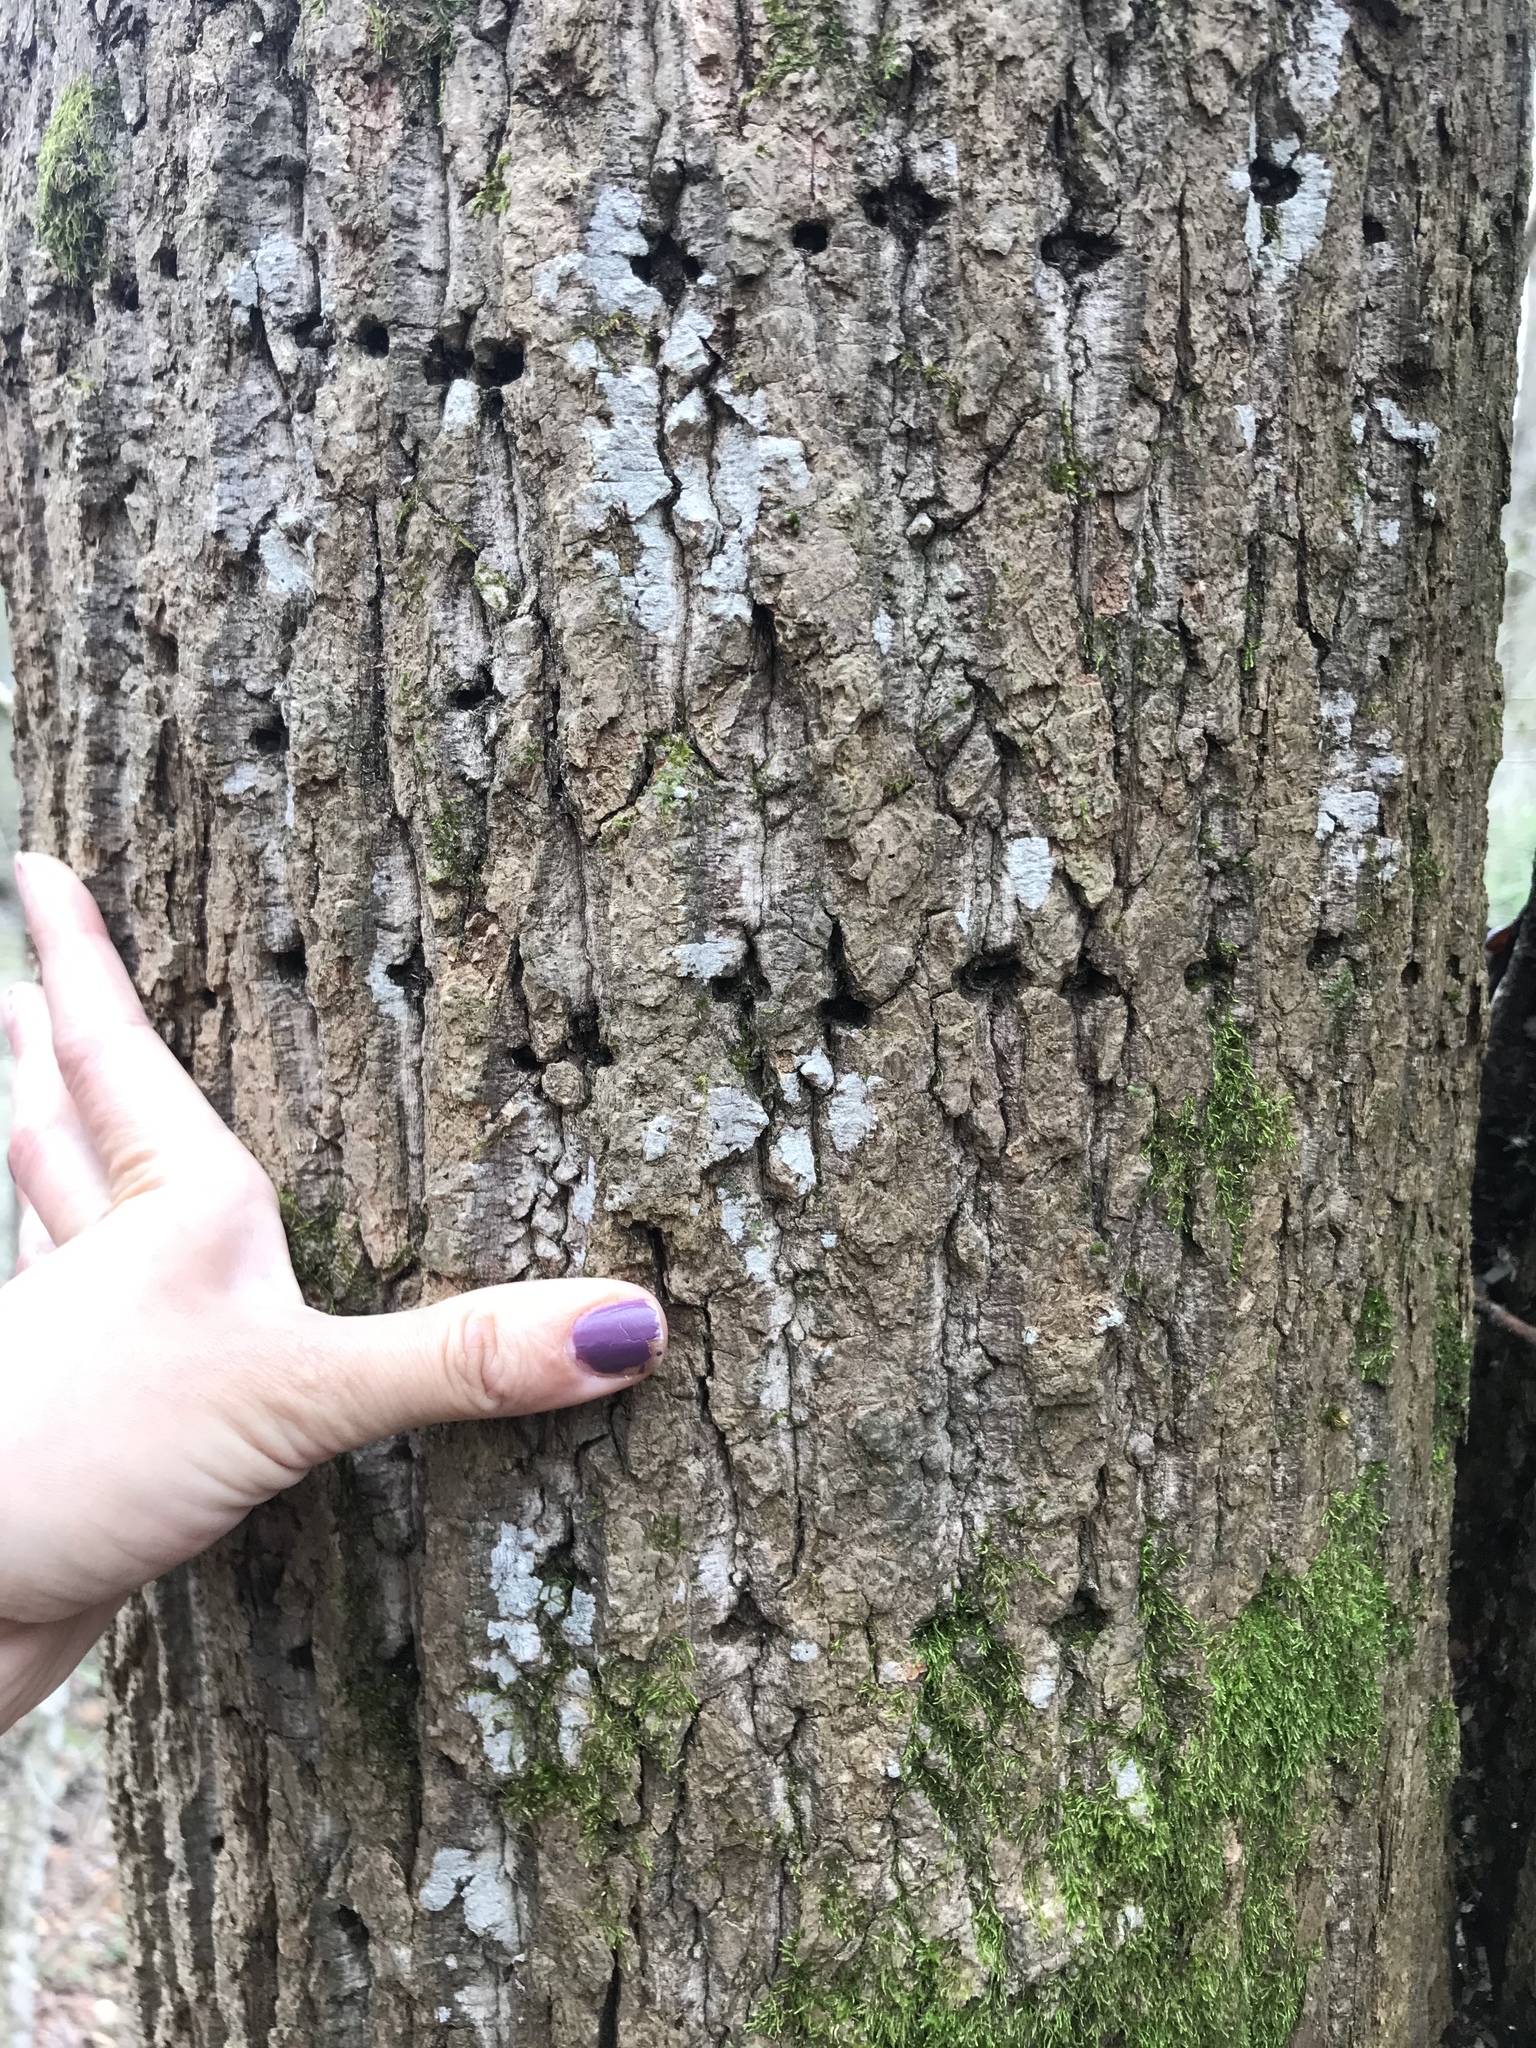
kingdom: Animalia
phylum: Chordata
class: Aves
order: Piciformes
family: Picidae
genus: Sphyrapicus
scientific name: Sphyrapicus varius
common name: Yellow-bellied sapsucker
